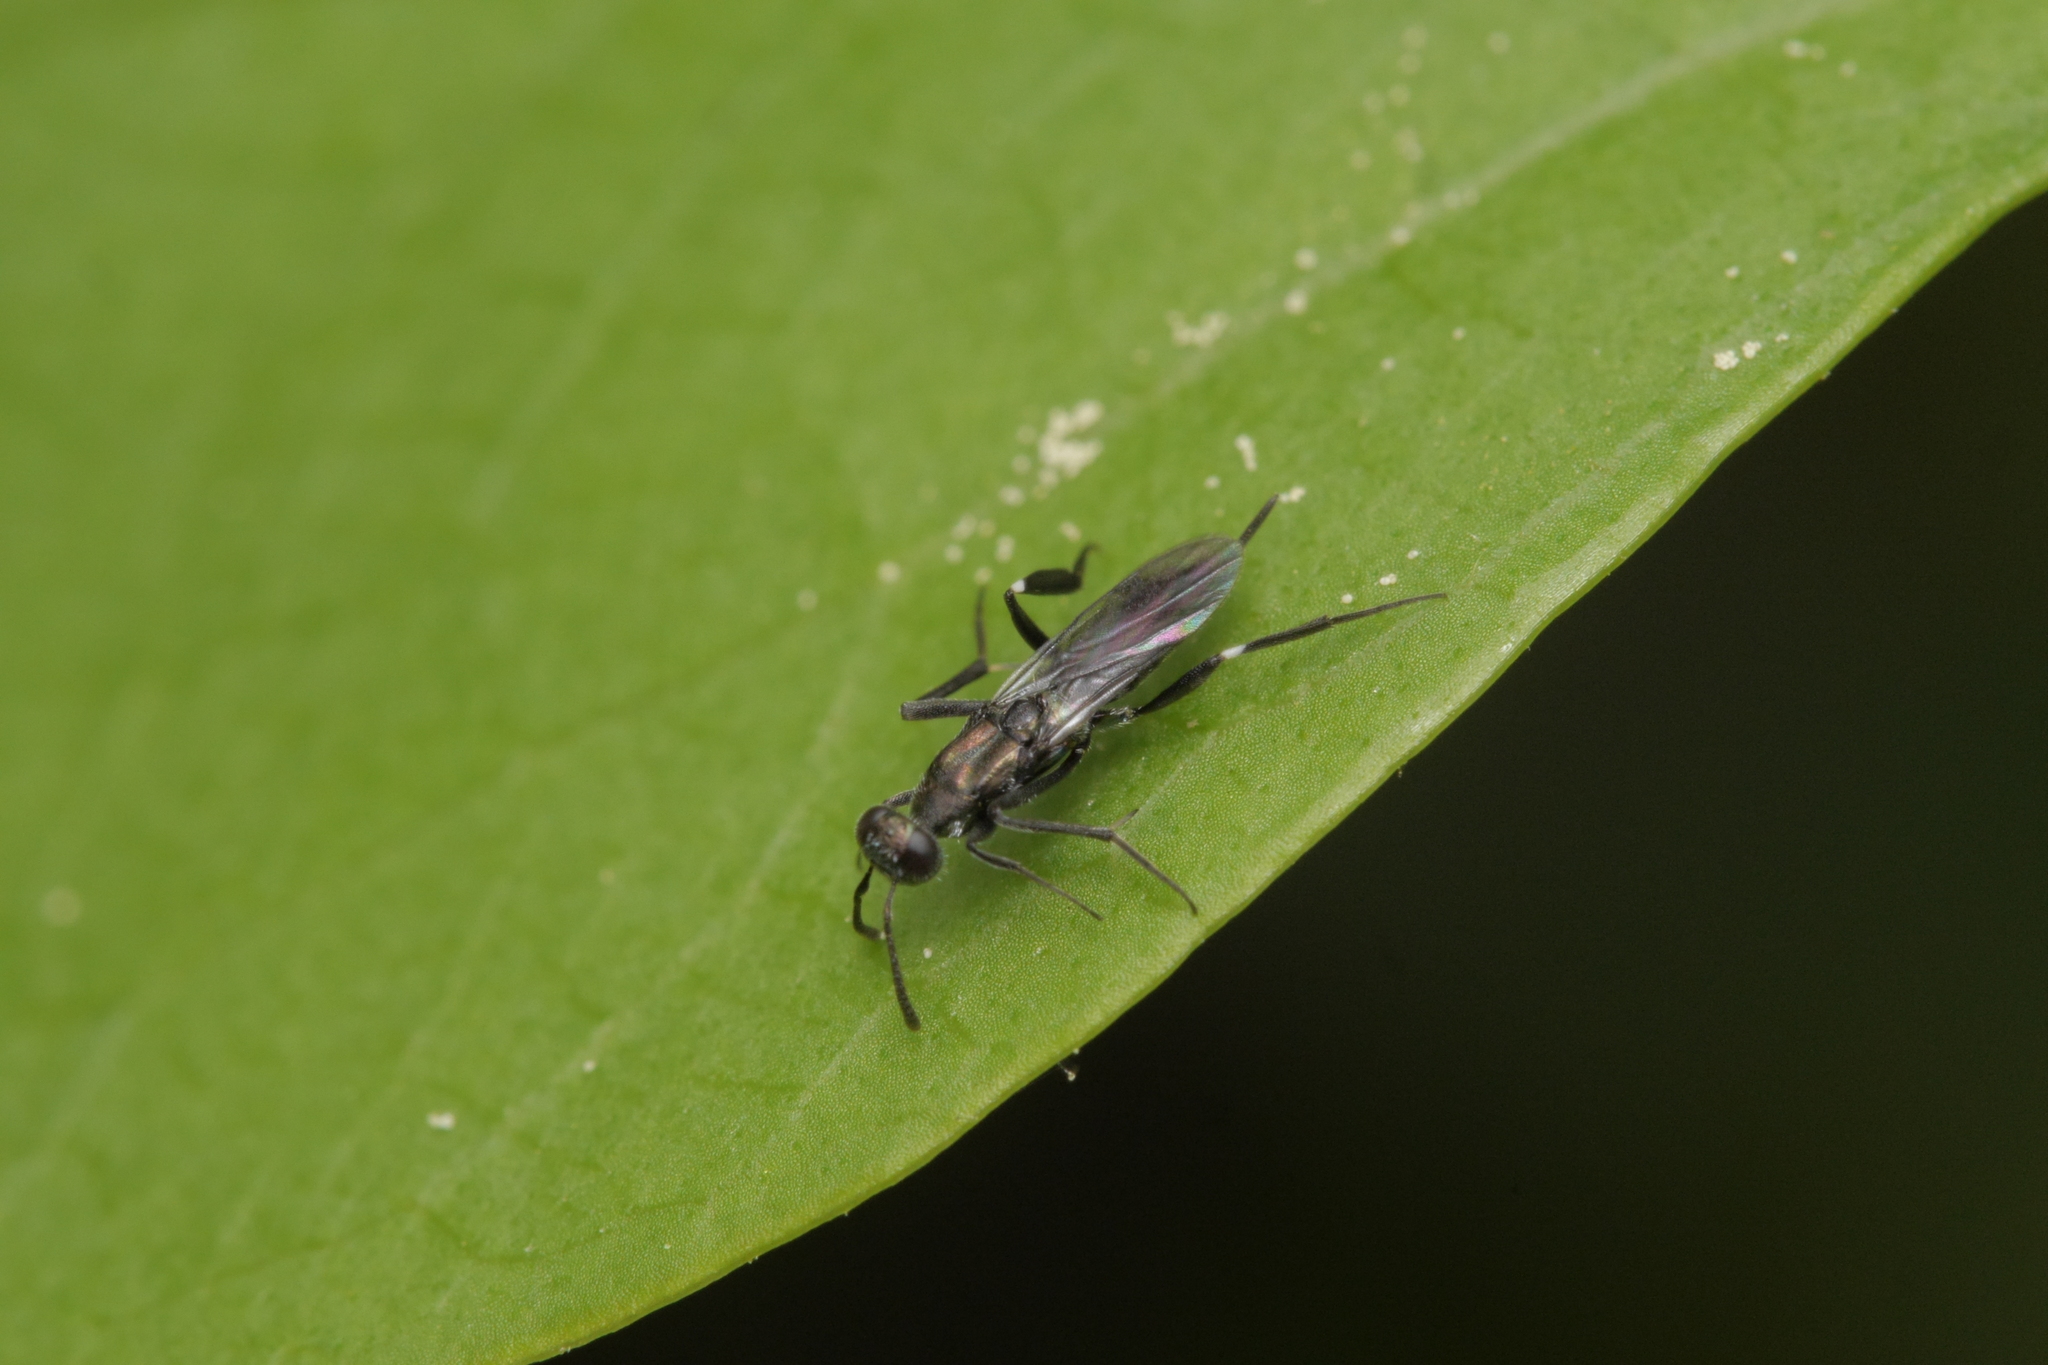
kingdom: Animalia
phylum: Arthropoda
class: Insecta
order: Hymenoptera
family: Eupelmidae
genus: Metapelma
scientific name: Metapelma nobilis
